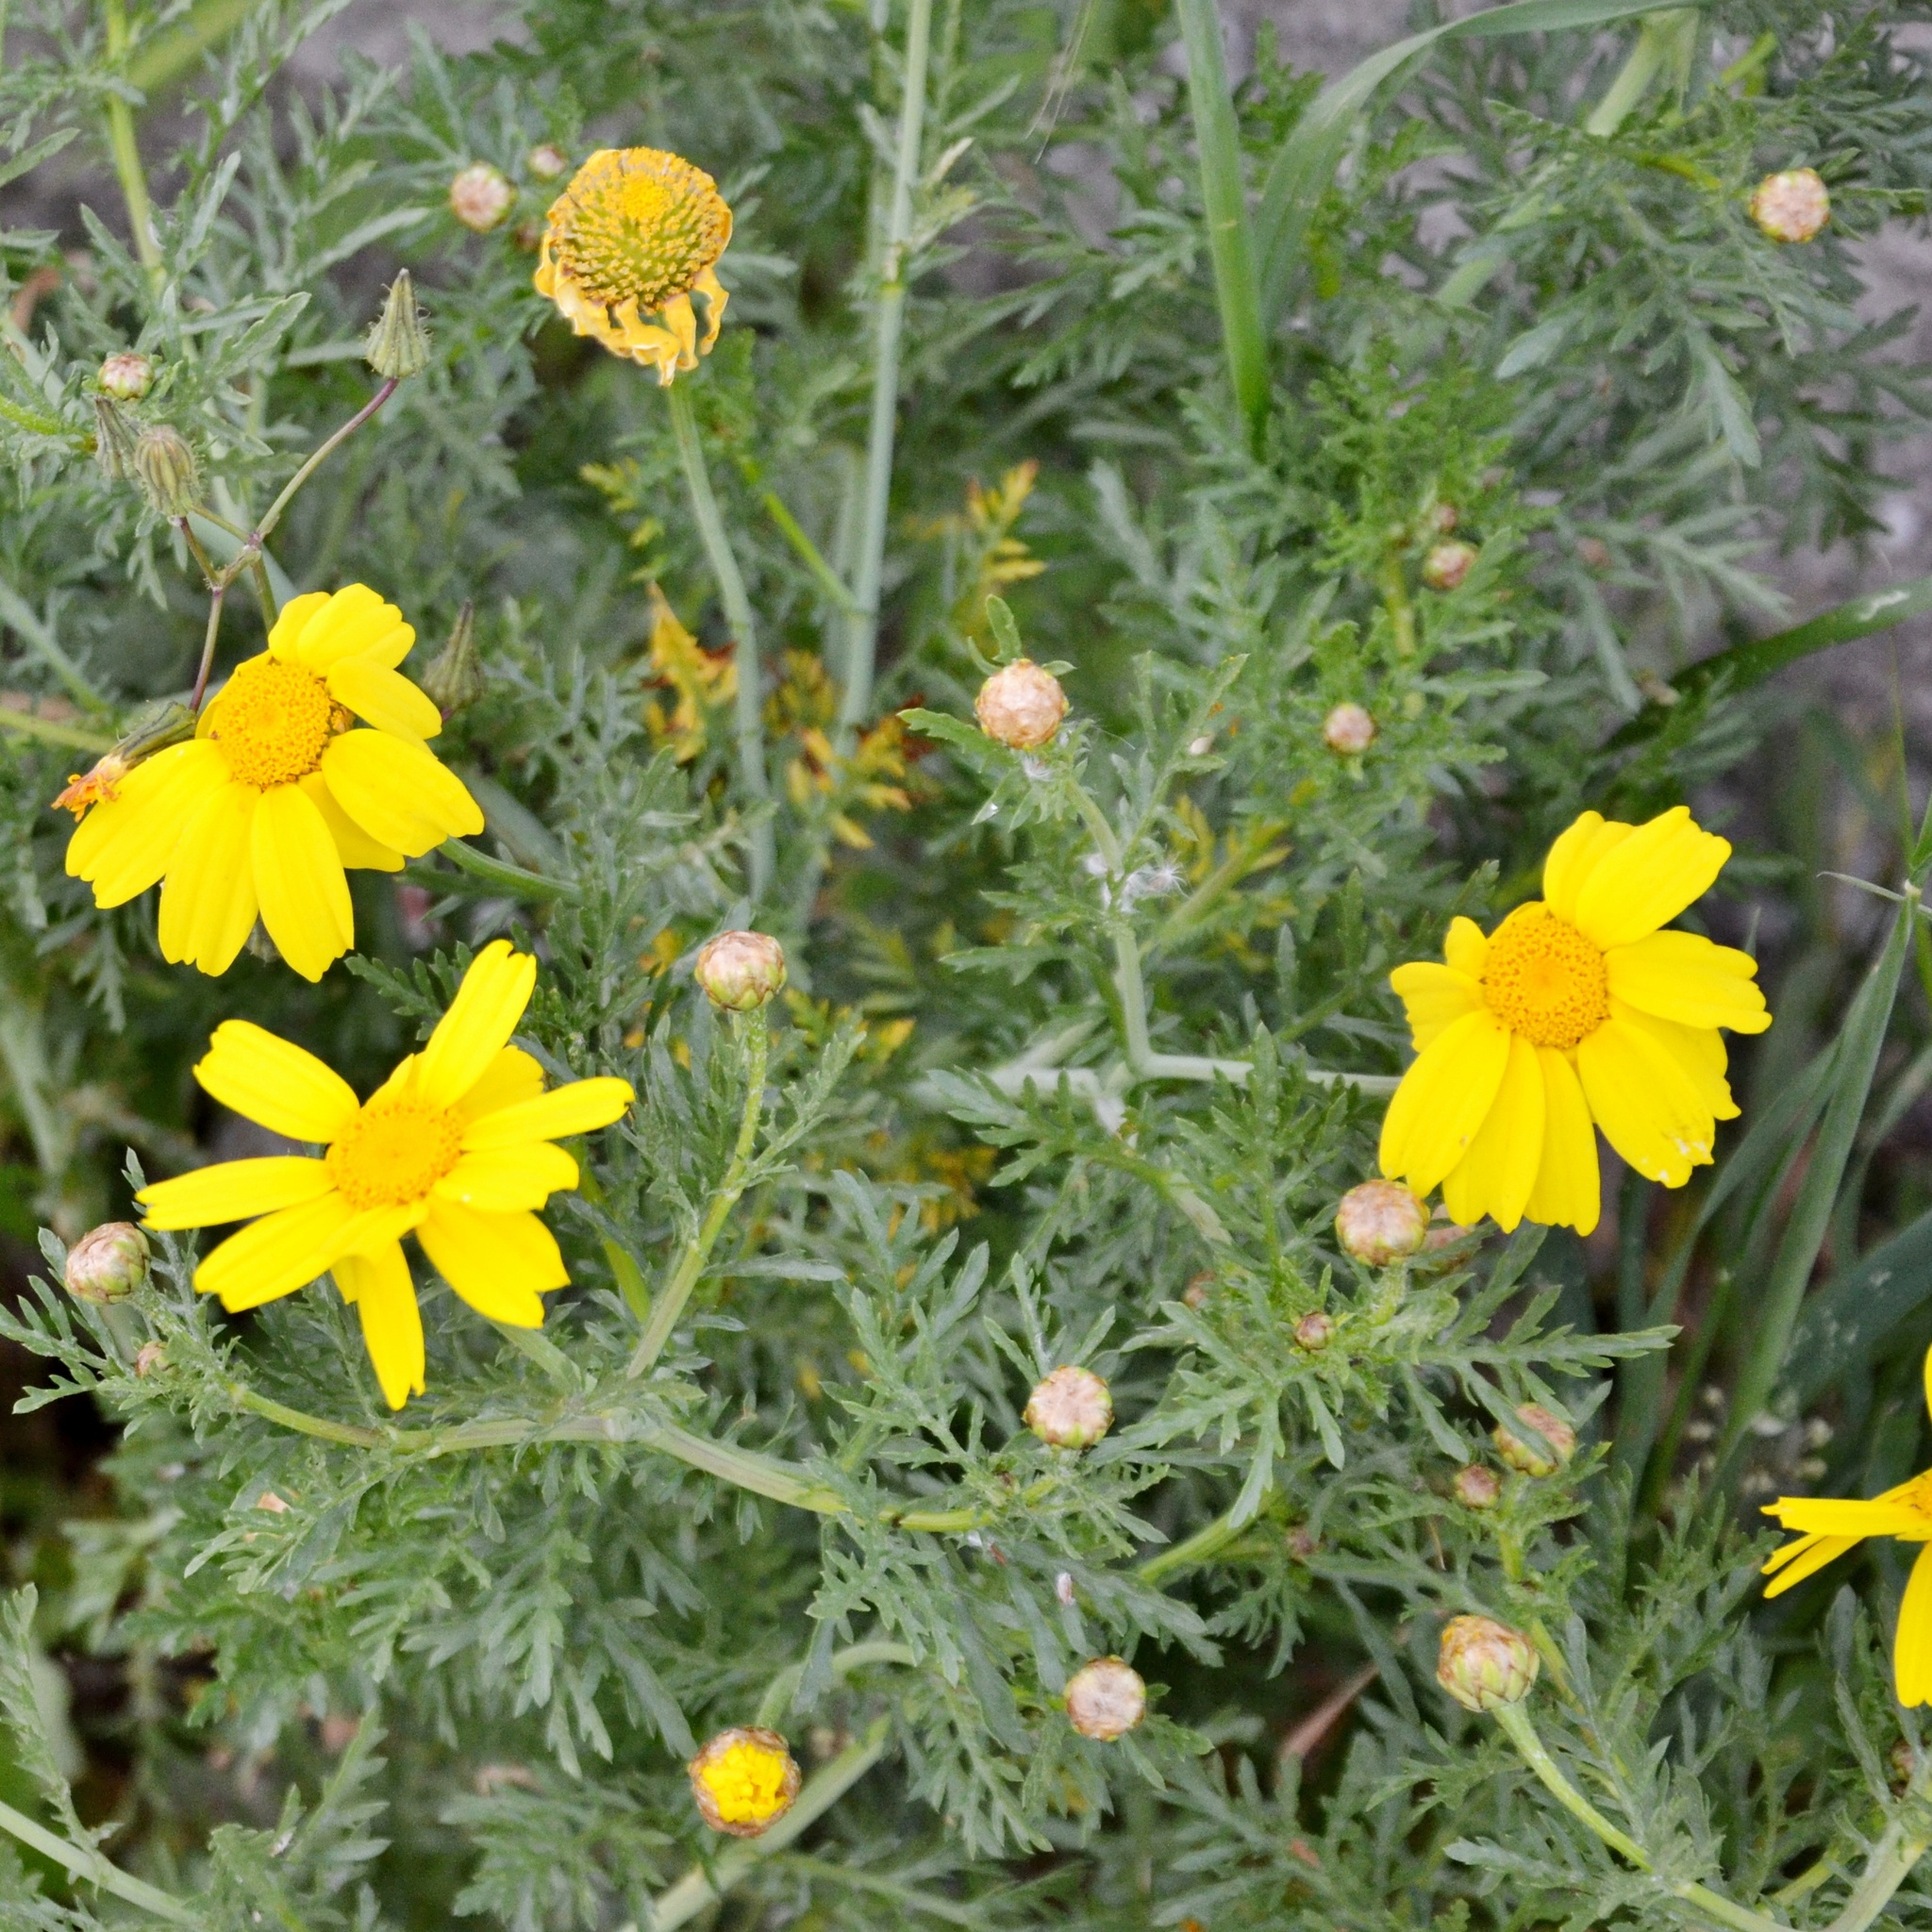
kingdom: Plantae
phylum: Tracheophyta
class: Magnoliopsida
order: Asterales
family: Asteraceae
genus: Glebionis
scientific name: Glebionis coronaria
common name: Crowndaisy
